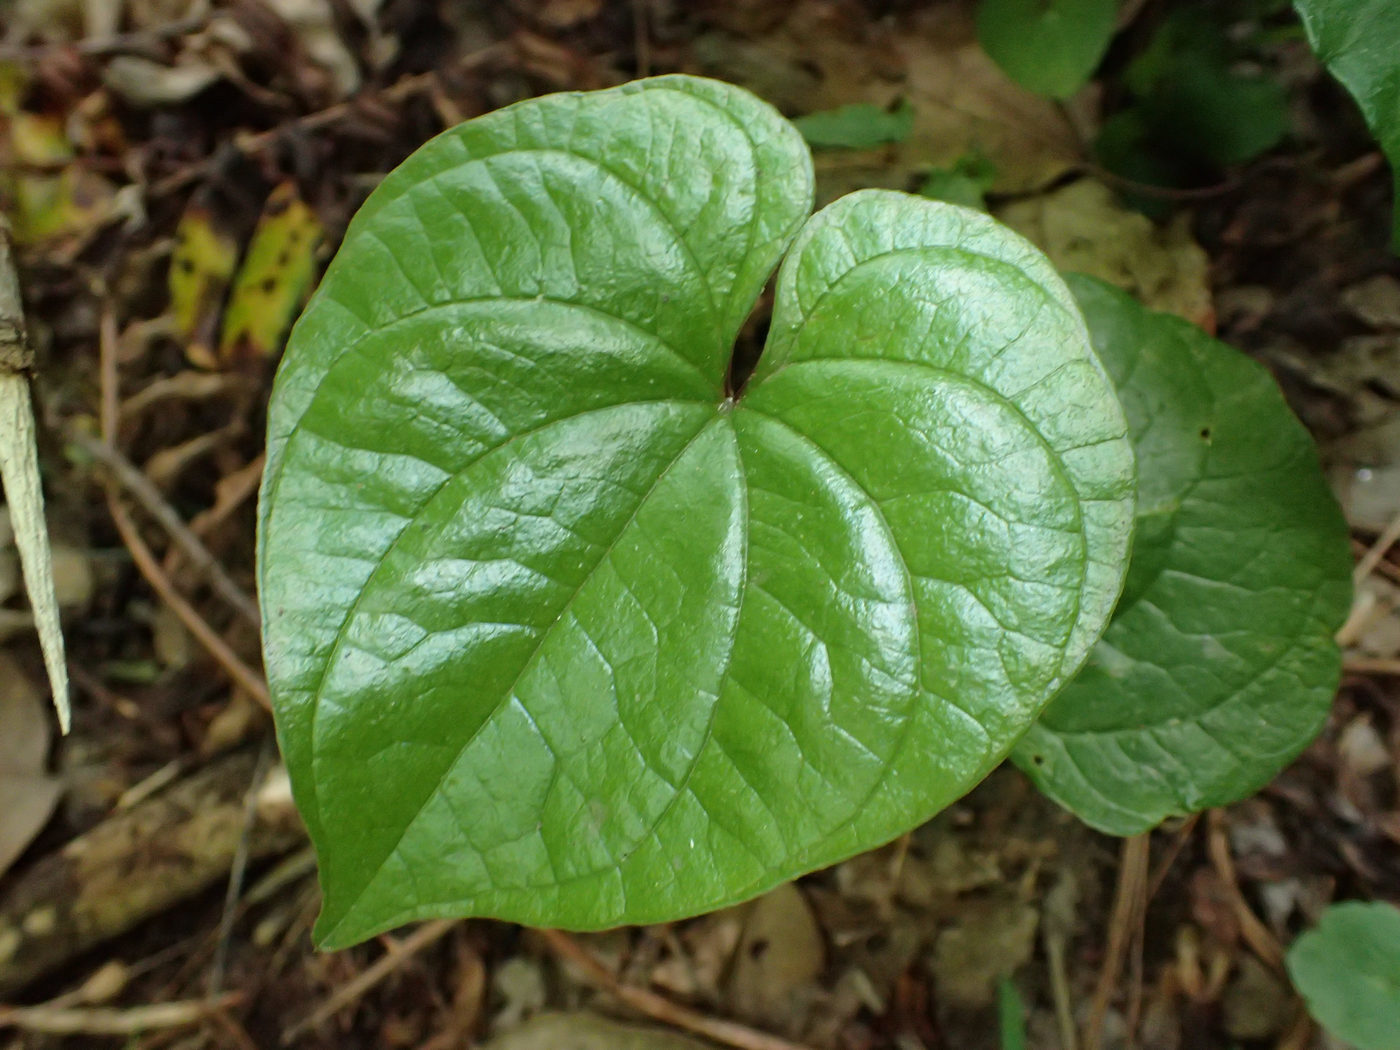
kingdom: Plantae
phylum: Tracheophyta
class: Liliopsida
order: Dioscoreales
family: Dioscoreaceae
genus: Dioscorea
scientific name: Dioscorea polystachya
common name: Chinese yam
